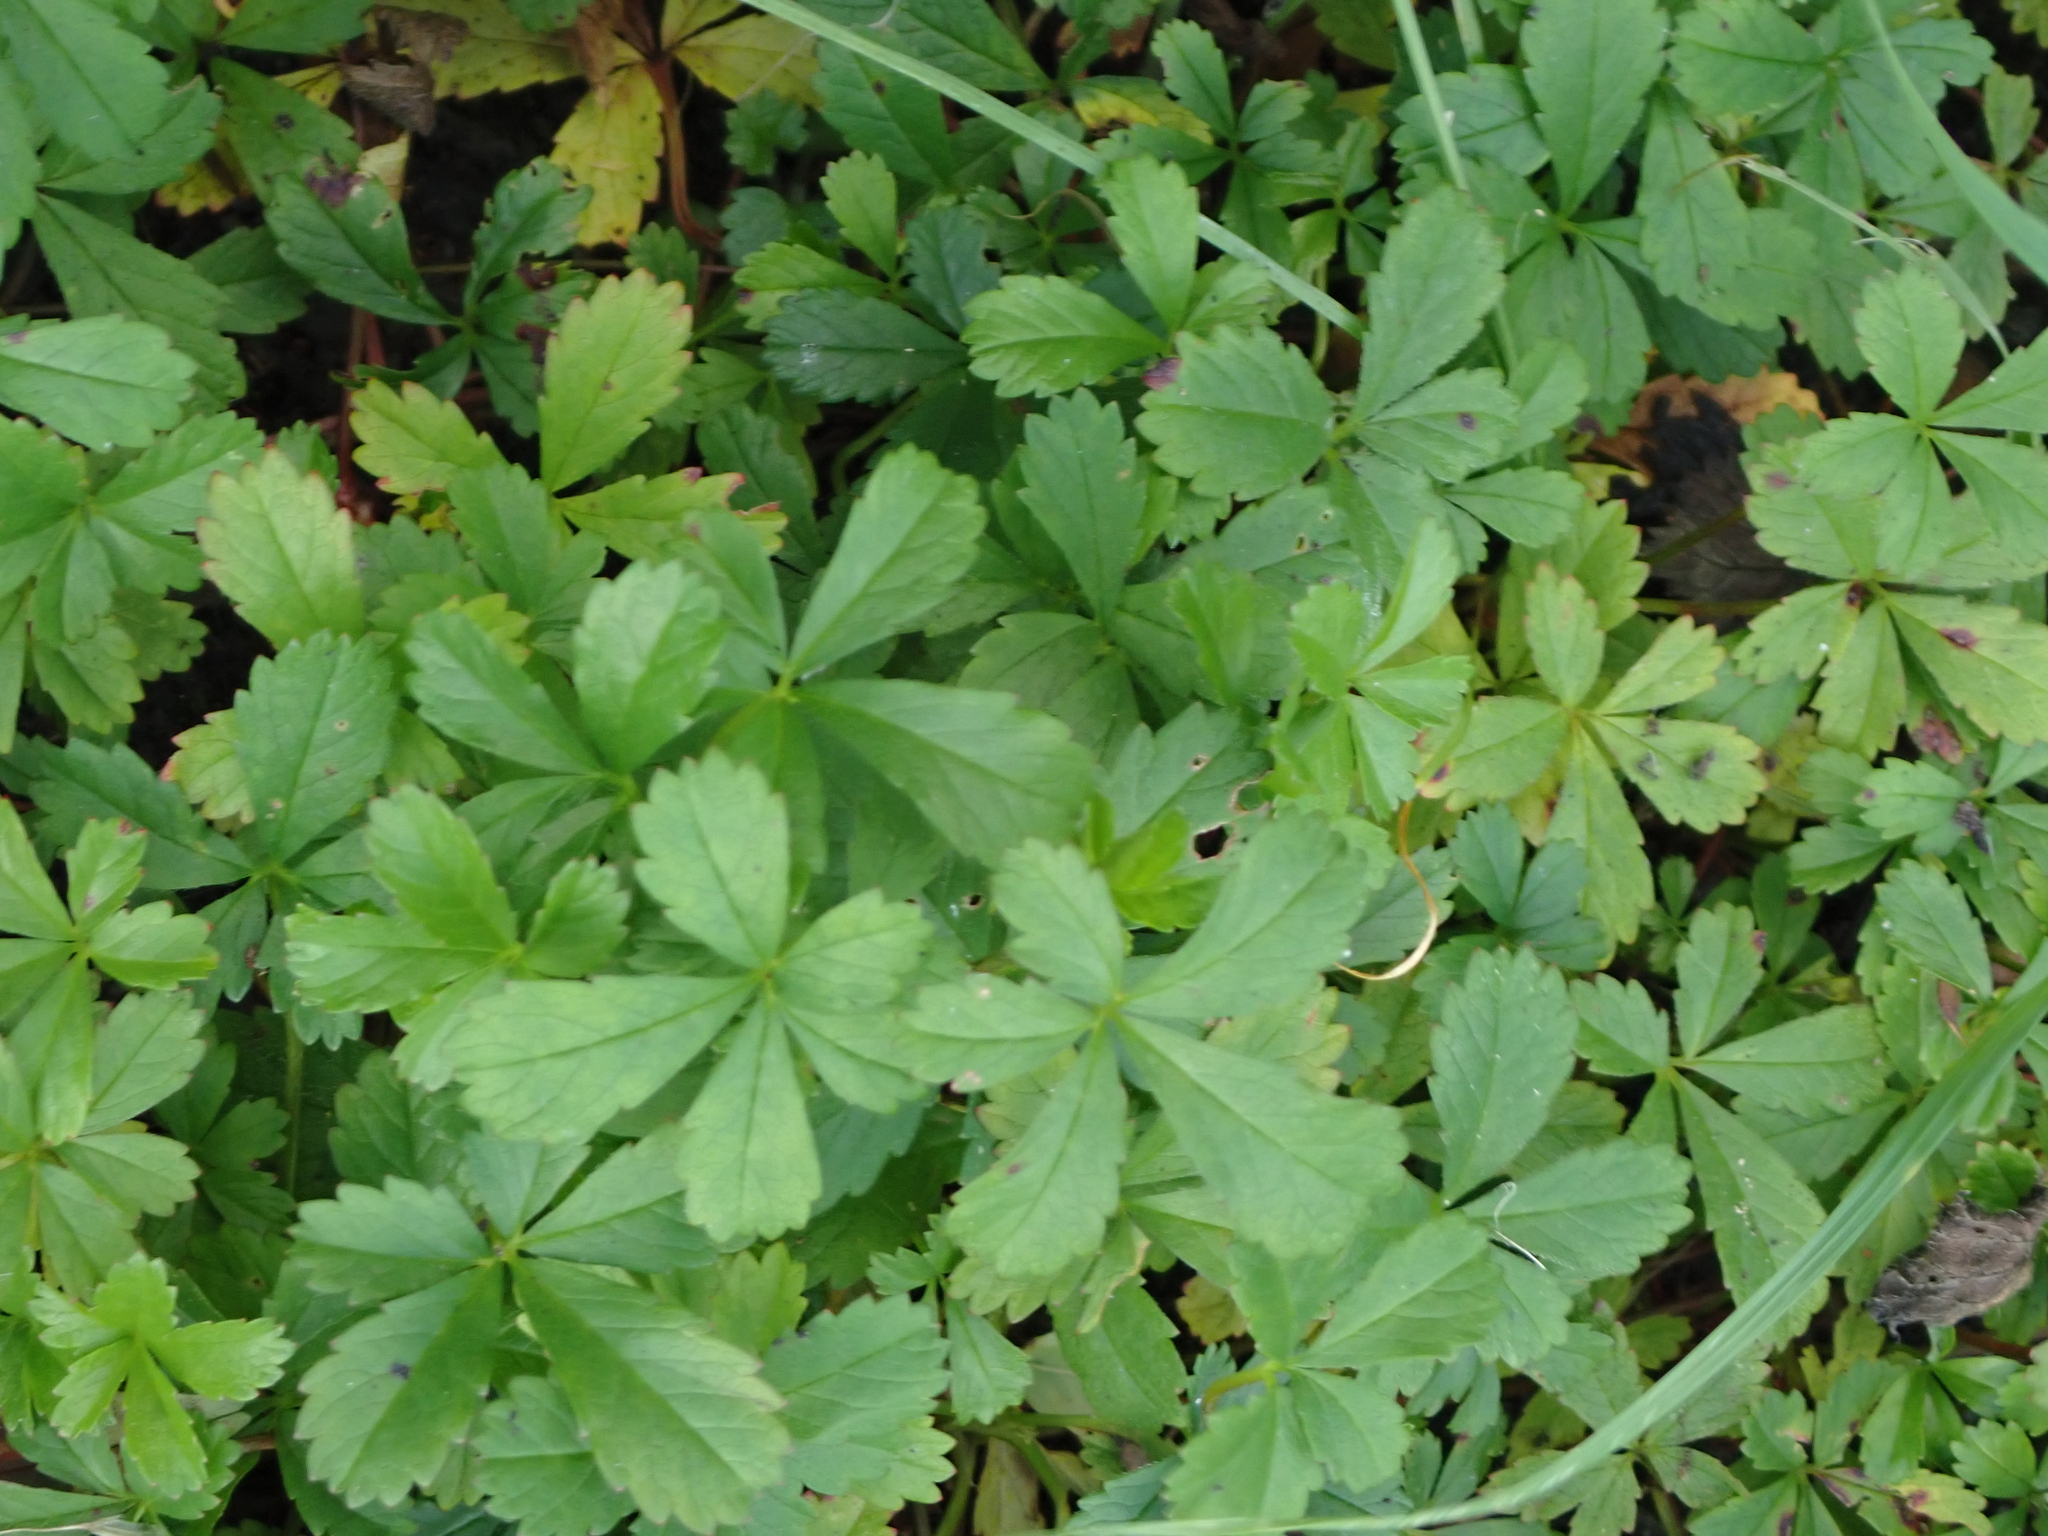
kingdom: Plantae
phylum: Tracheophyta
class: Magnoliopsida
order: Rosales
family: Rosaceae
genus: Potentilla
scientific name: Potentilla reptans
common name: Creeping cinquefoil
